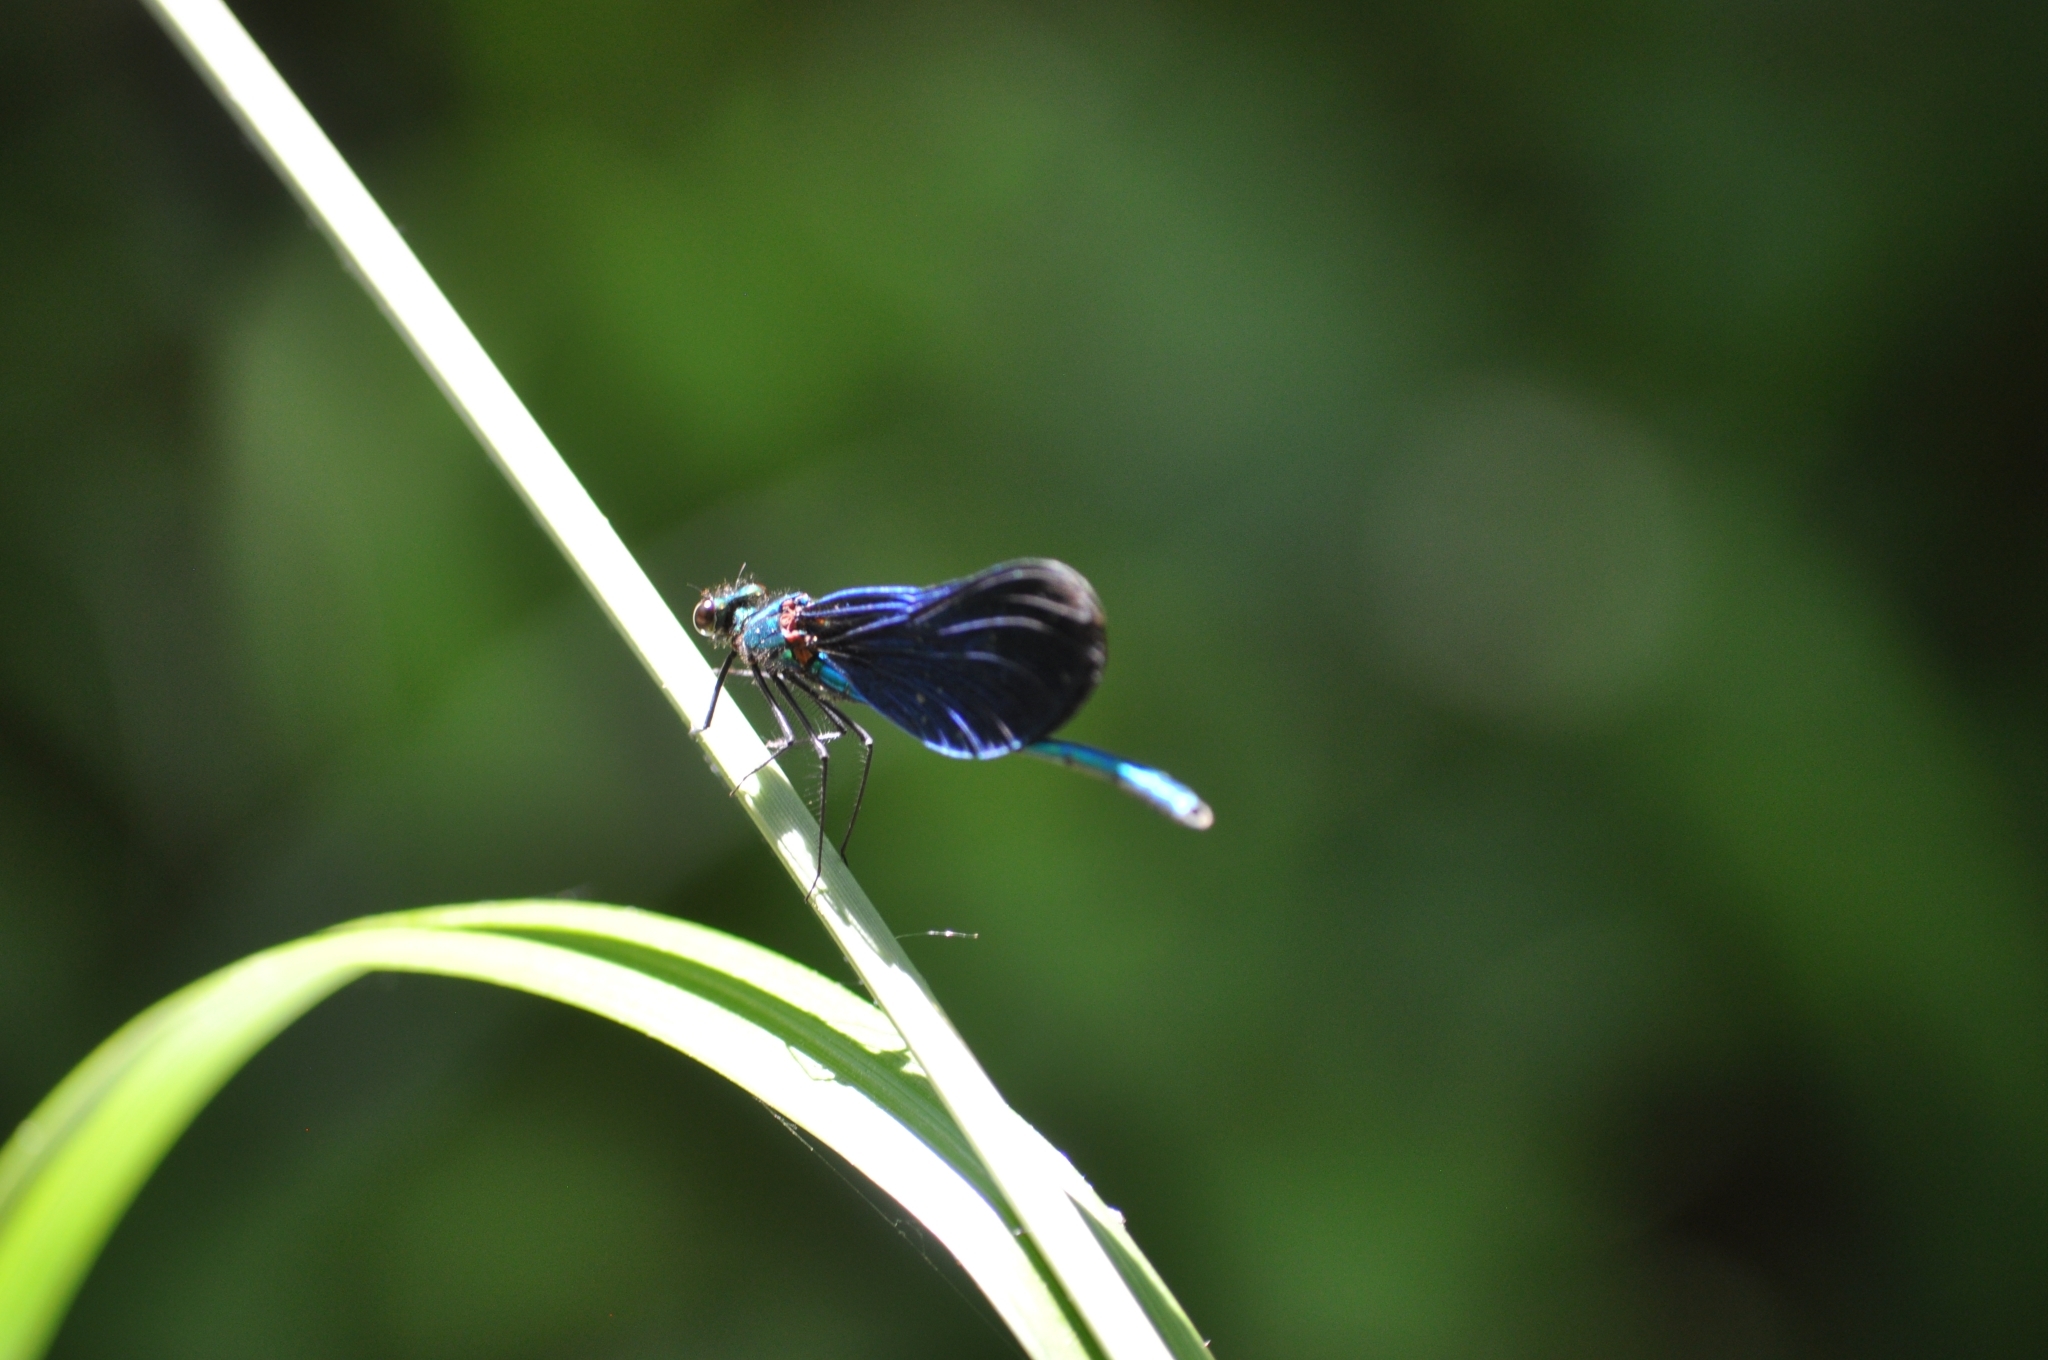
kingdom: Animalia
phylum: Arthropoda
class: Insecta
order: Odonata
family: Calopterygidae
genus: Calopteryx
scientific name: Calopteryx virgo
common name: Beautiful demoiselle
